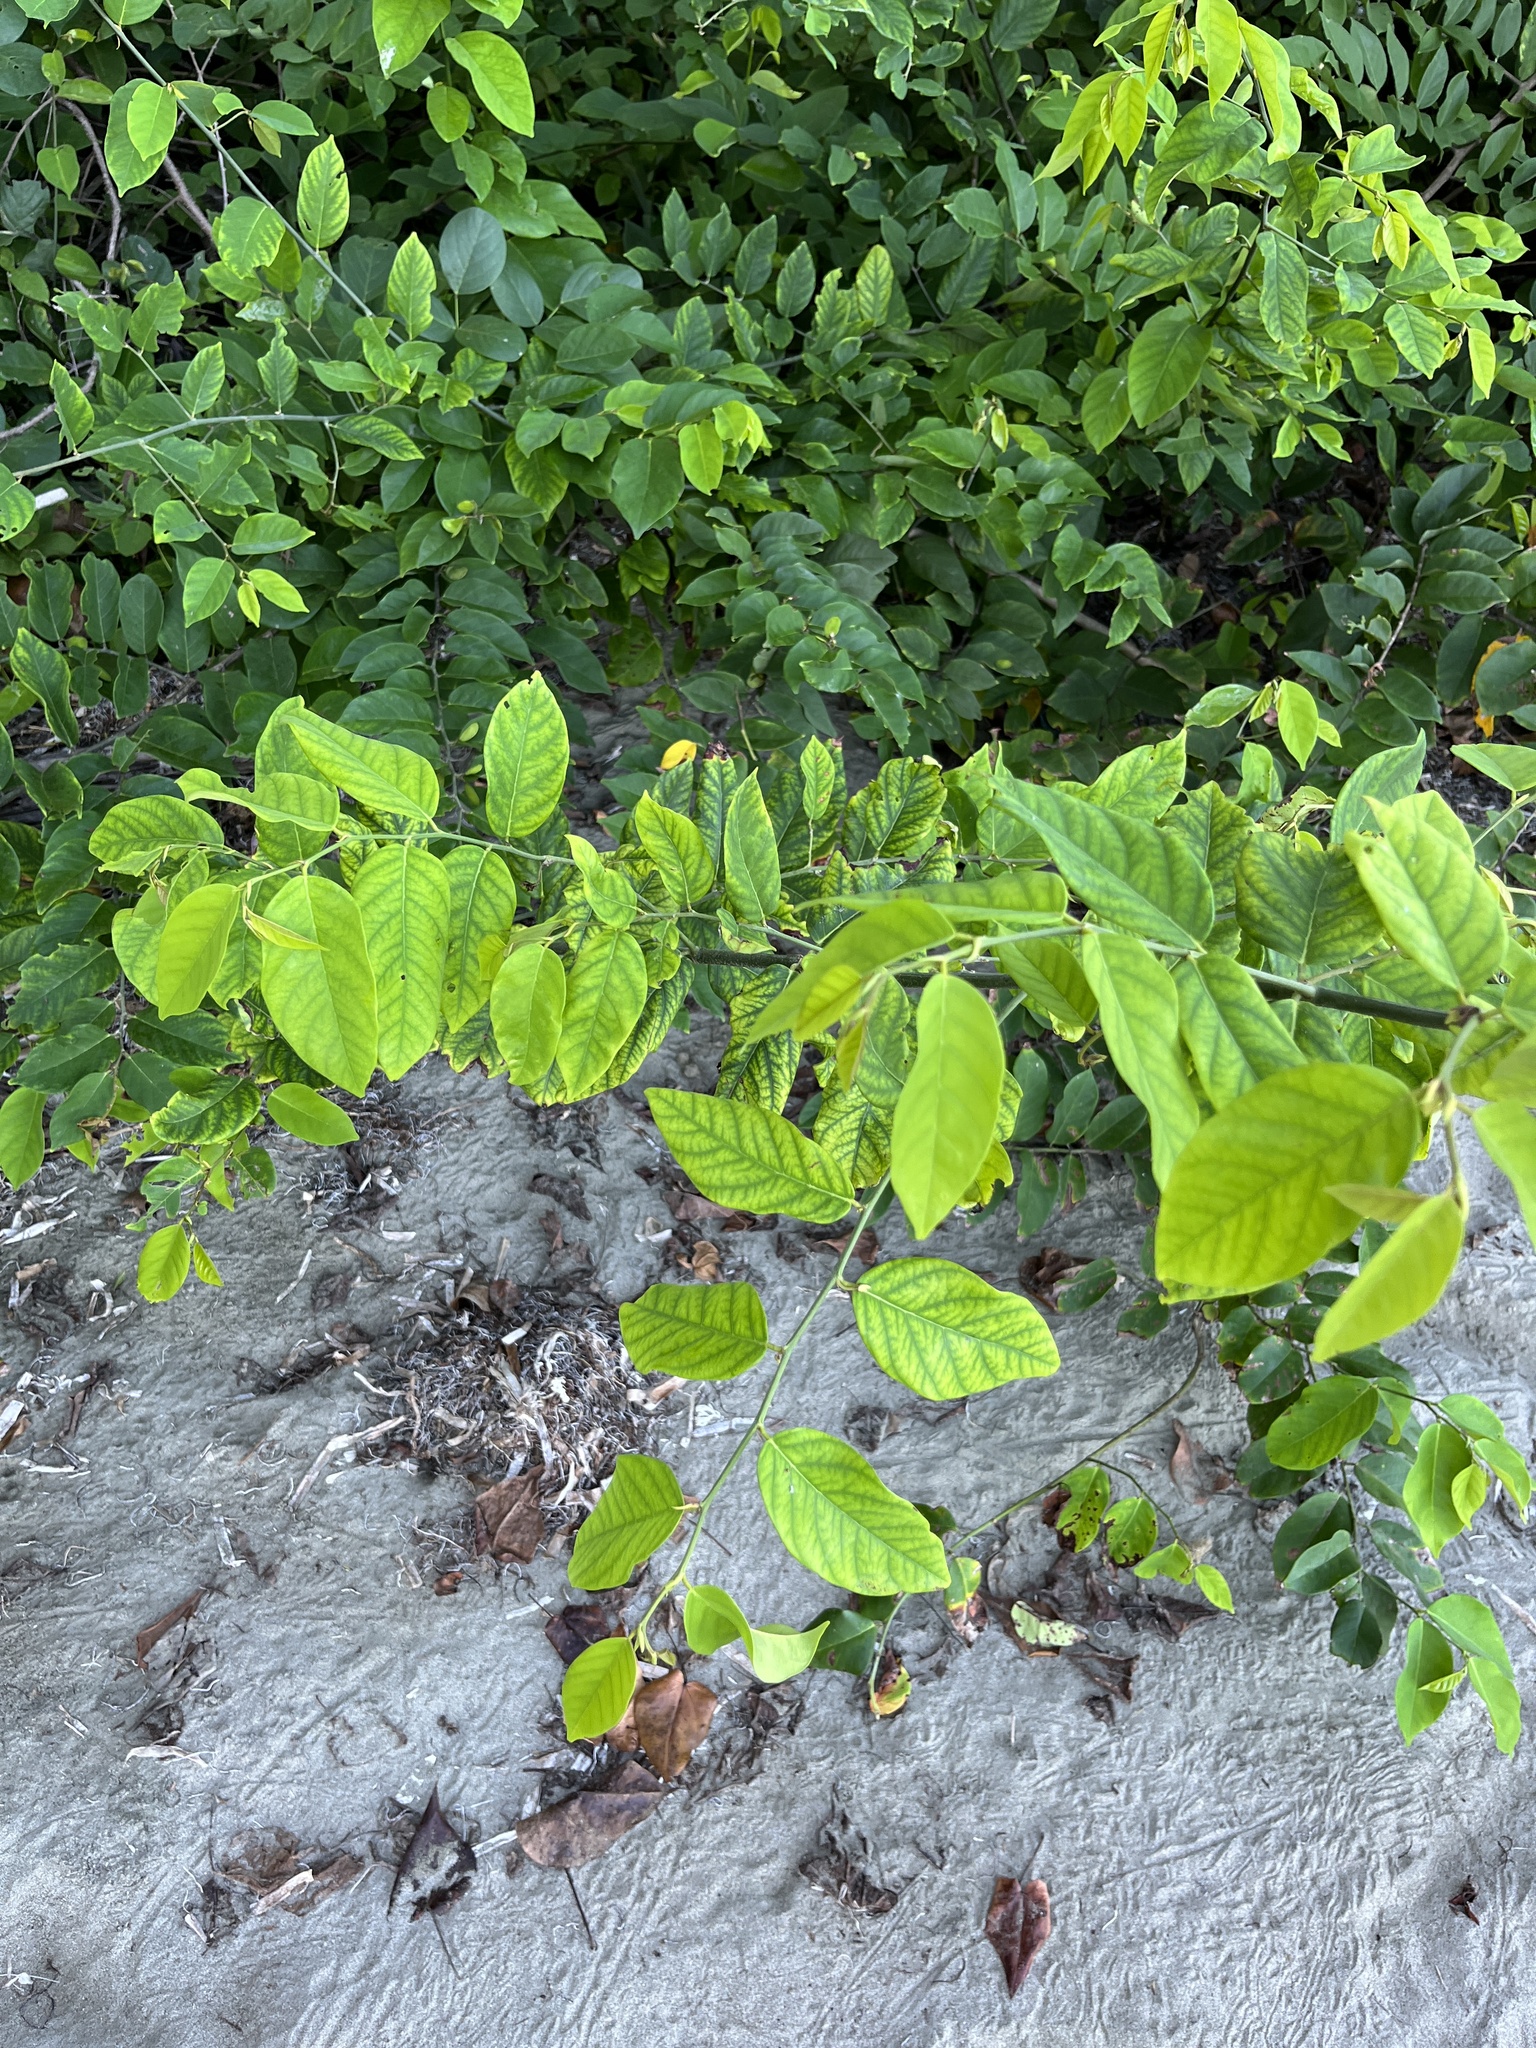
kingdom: Plantae
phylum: Tracheophyta
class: Magnoliopsida
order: Fabales
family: Fabaceae
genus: Dalbergia
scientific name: Dalbergia ecastaphyllum
